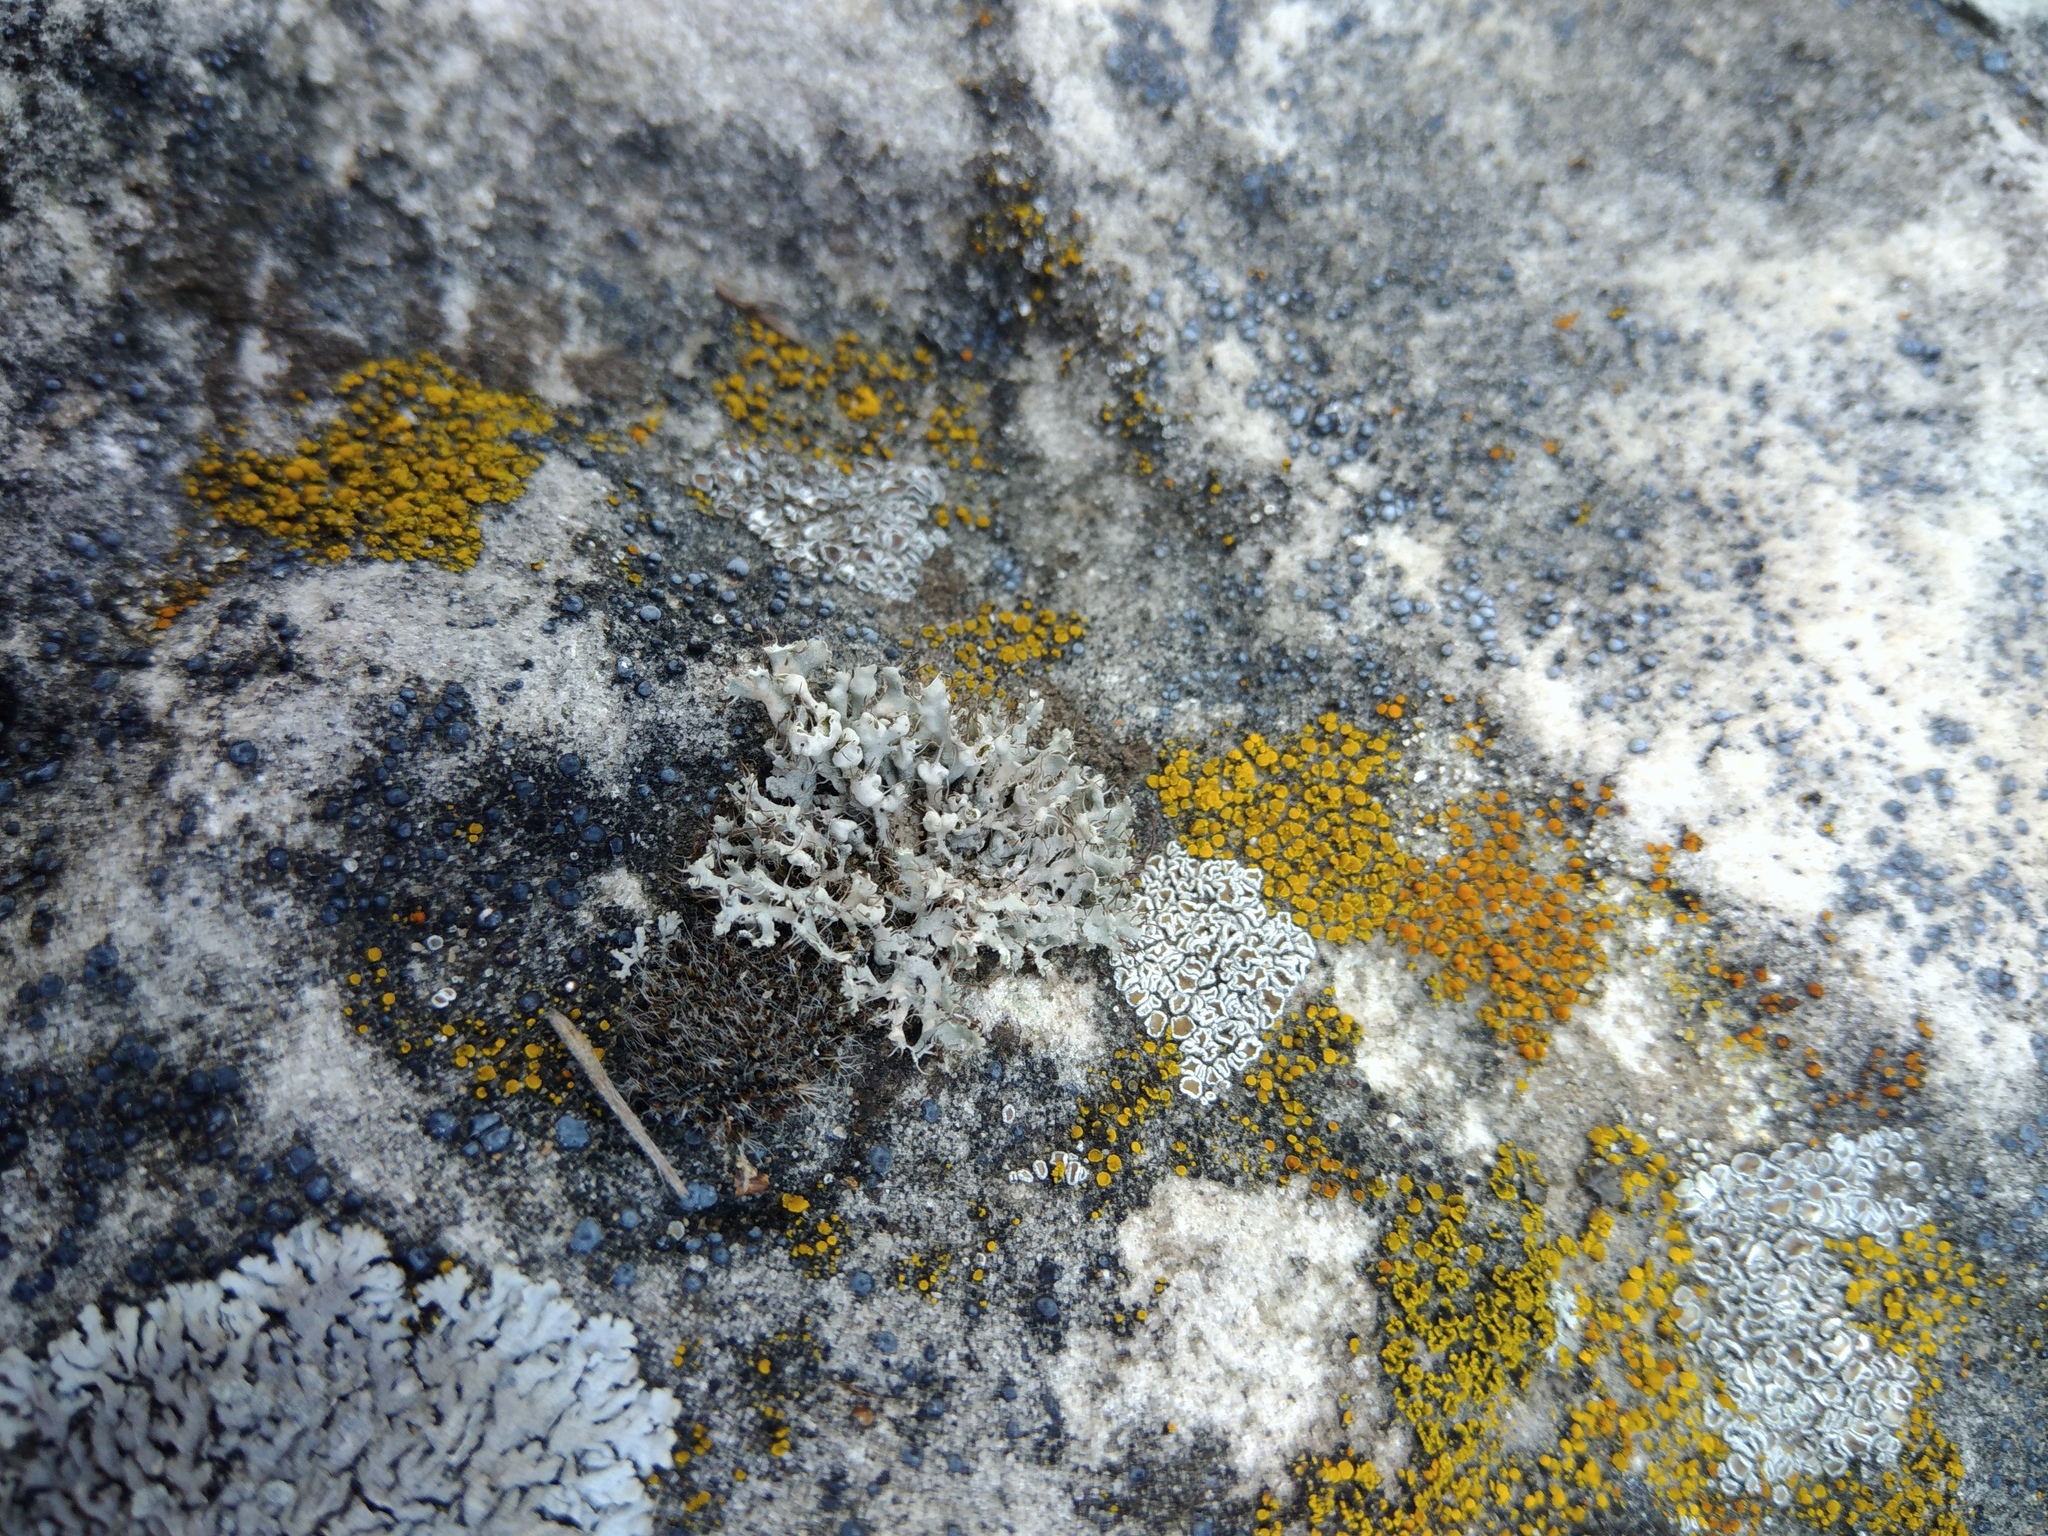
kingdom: Fungi
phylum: Ascomycota
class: Lecanoromycetes
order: Caliciales
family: Physciaceae
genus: Physcia
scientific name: Physcia adscendens
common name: Hooded rosette lichen
